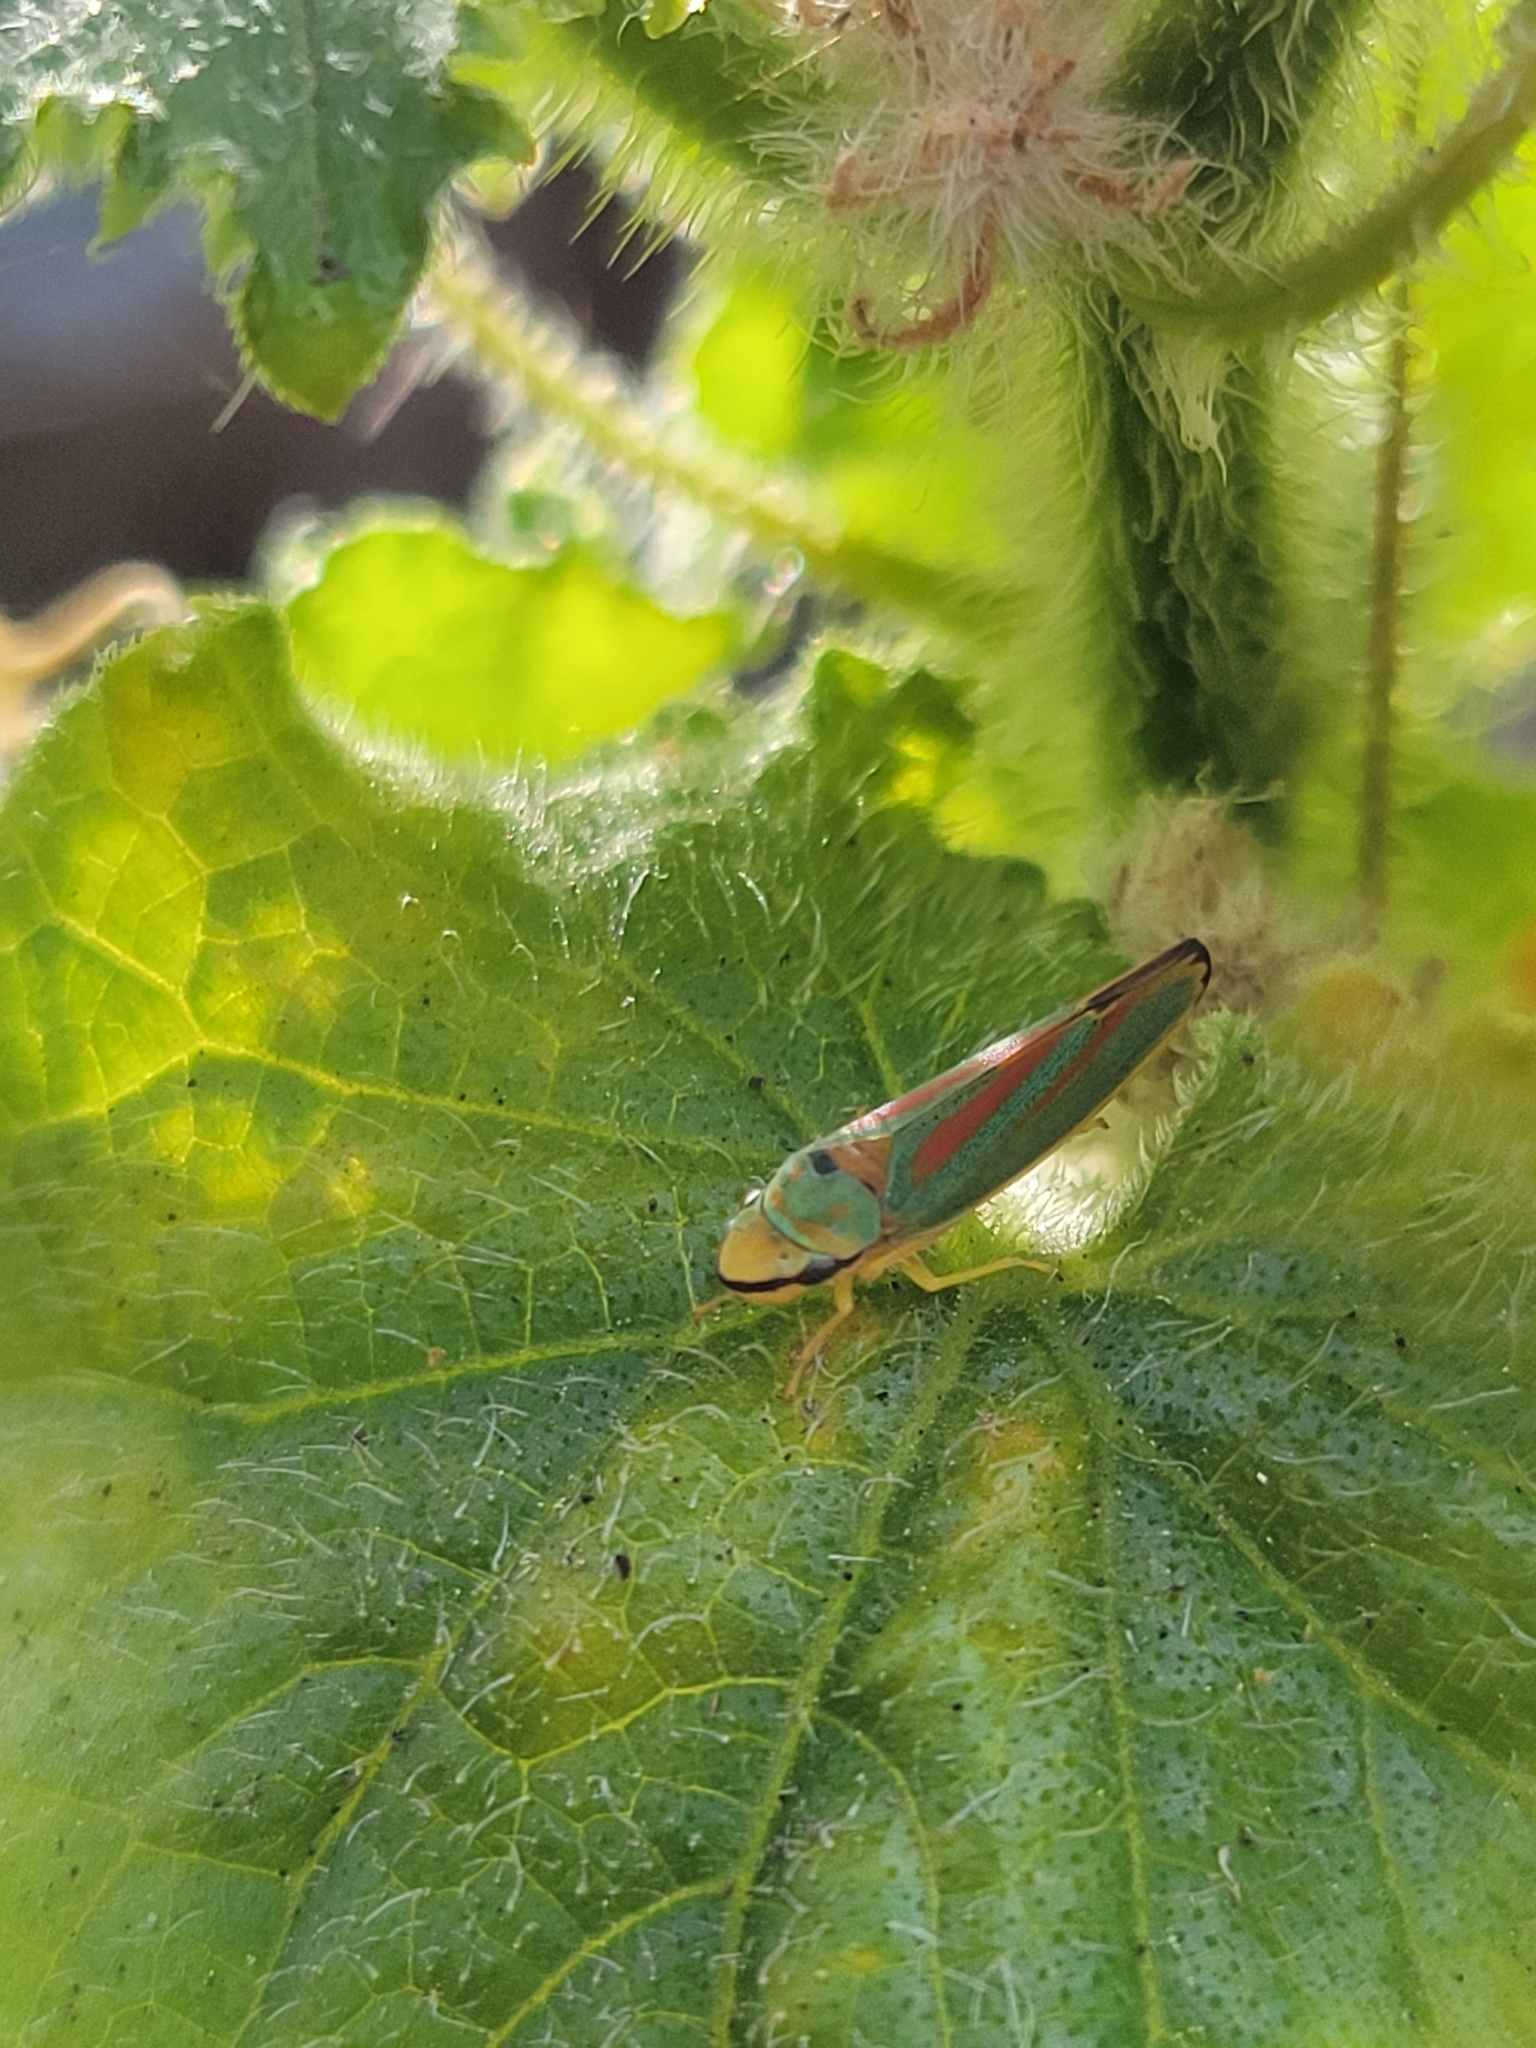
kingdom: Animalia
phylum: Arthropoda
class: Insecta
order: Hemiptera
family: Cicadellidae
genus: Graphocephala
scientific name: Graphocephala fennahi
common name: Rhododendron leafhopper
